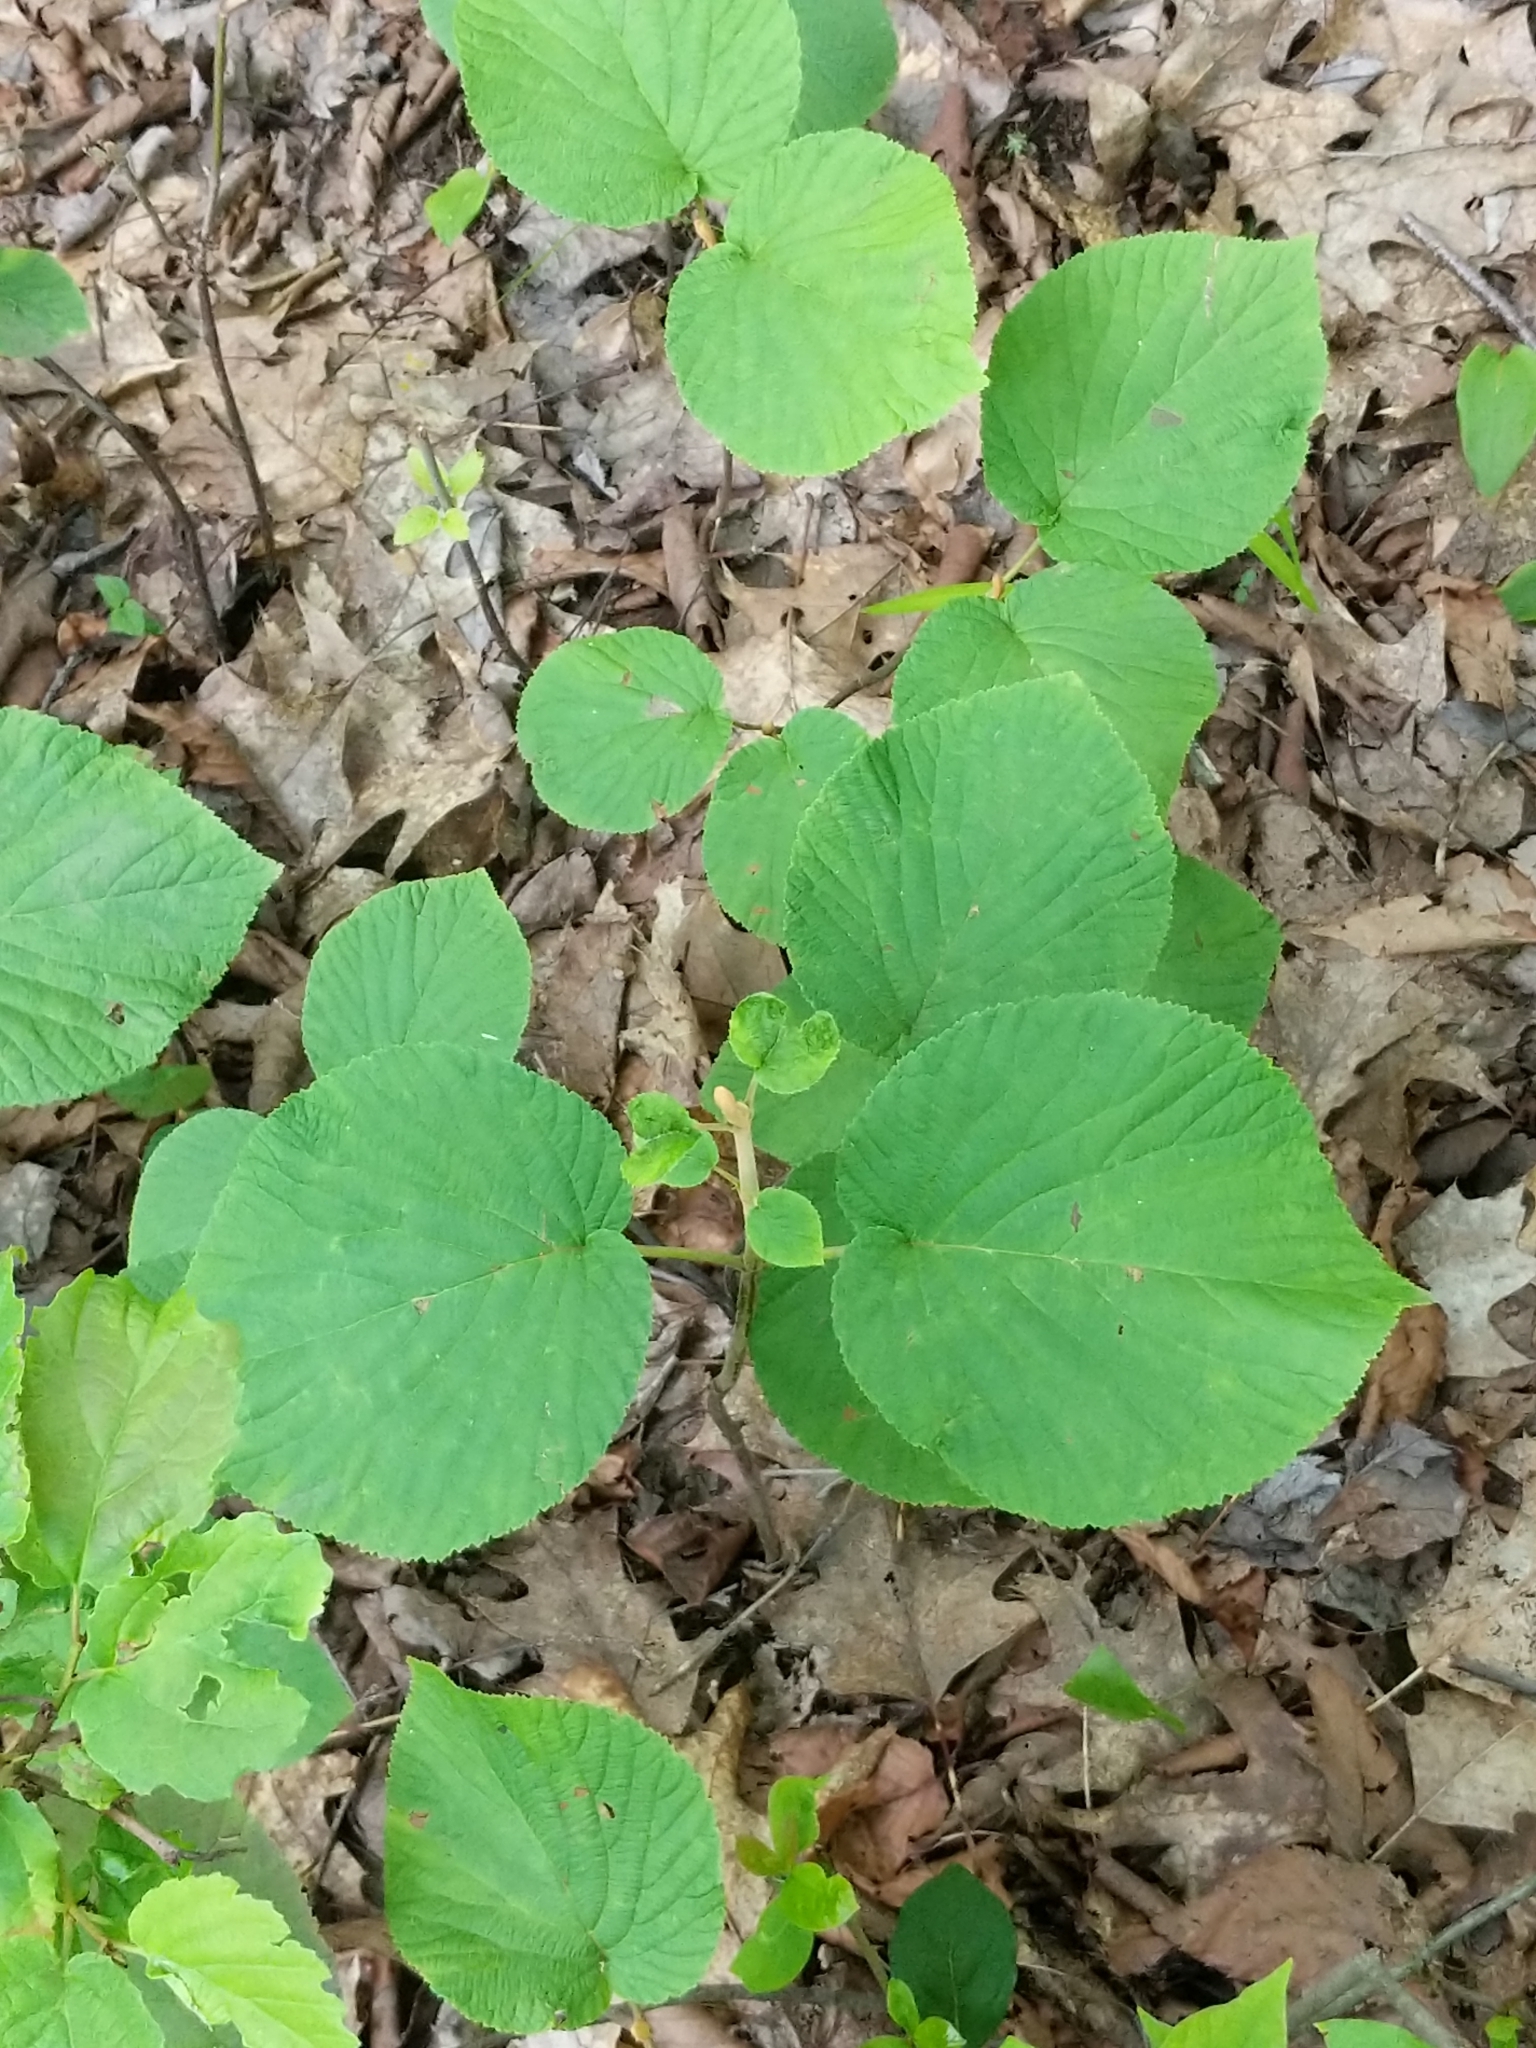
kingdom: Plantae
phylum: Tracheophyta
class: Magnoliopsida
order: Dipsacales
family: Viburnaceae
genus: Viburnum
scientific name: Viburnum lantanoides
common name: Hobblebush
